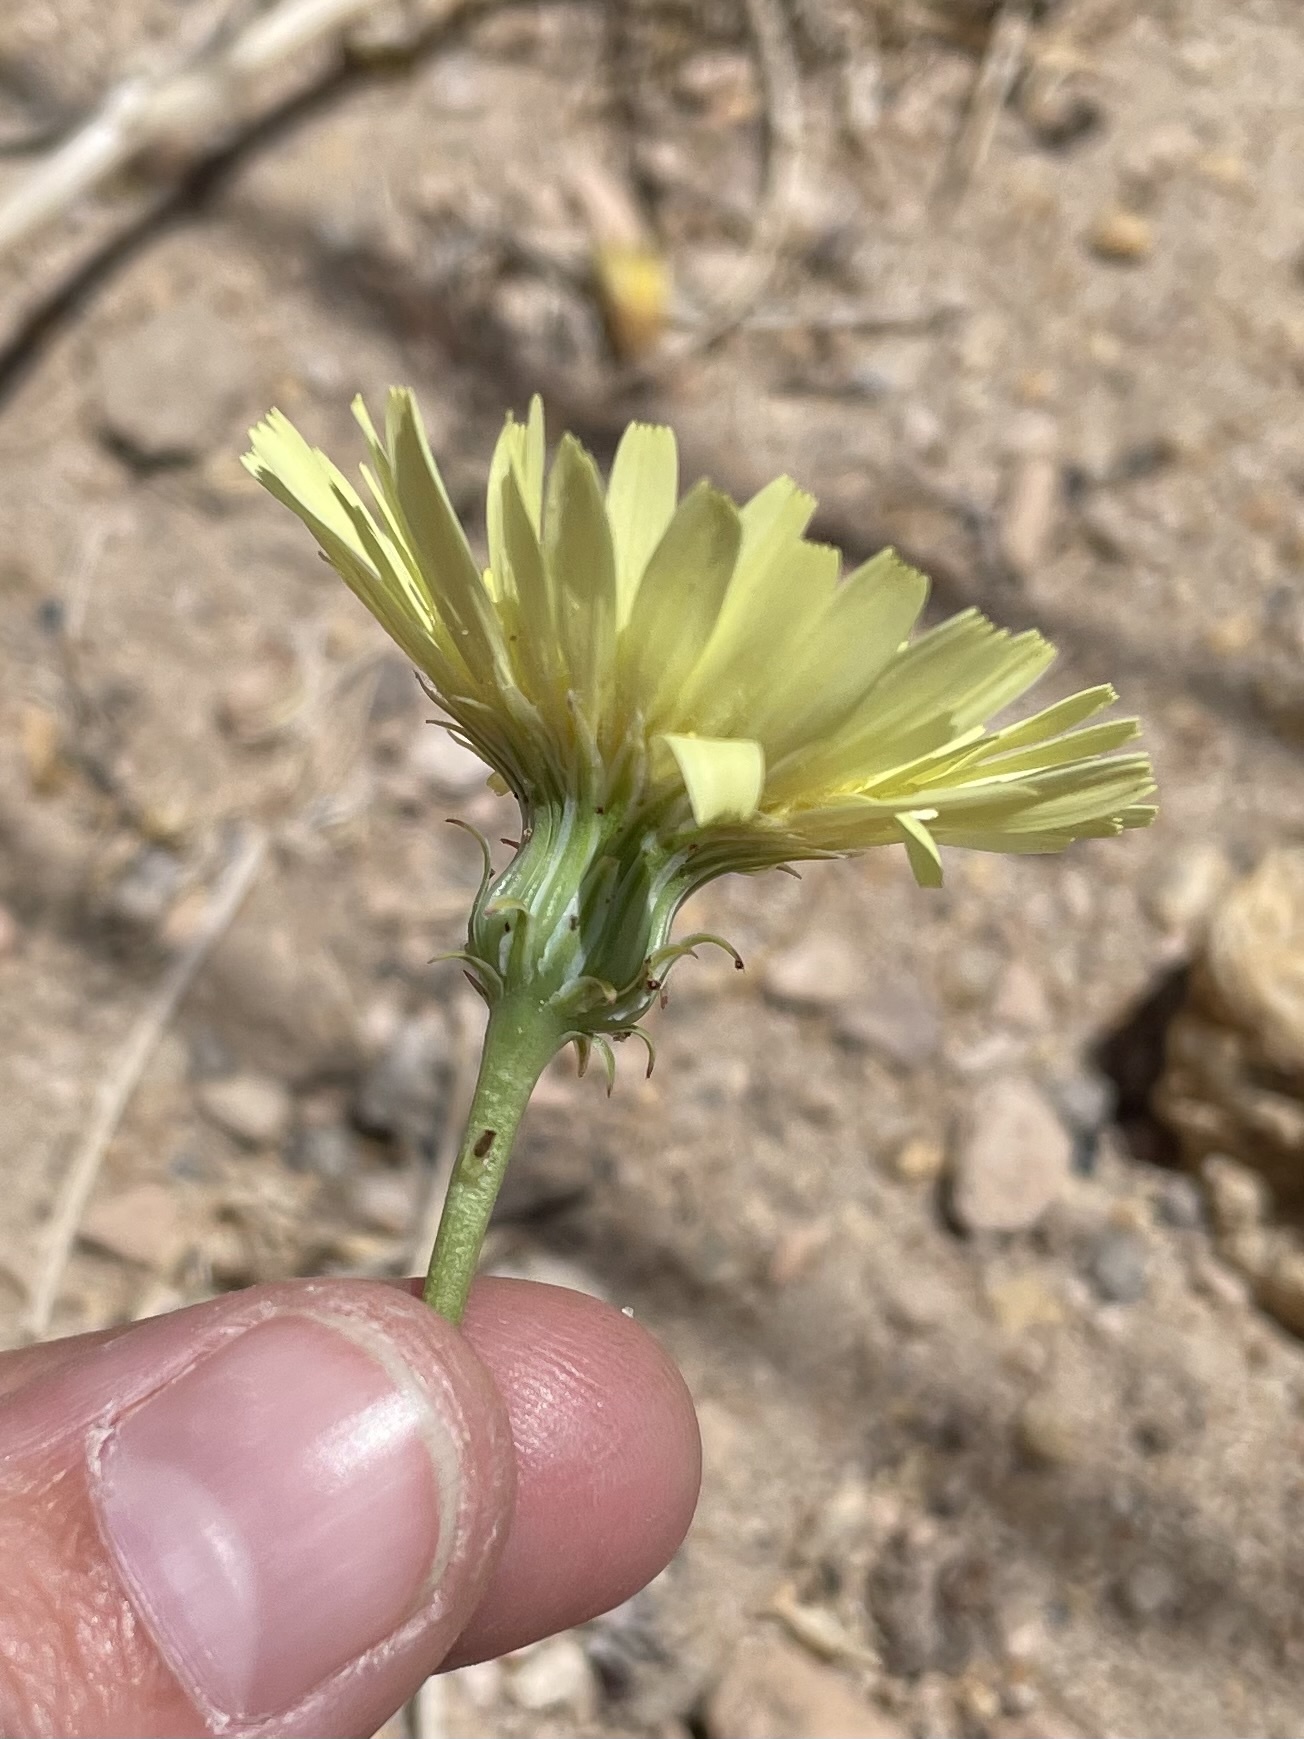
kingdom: Plantae
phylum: Tracheophyta
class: Magnoliopsida
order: Asterales
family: Asteraceae
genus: Malacothrix
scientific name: Malacothrix glabrata
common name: Smooth desert-dandelion
